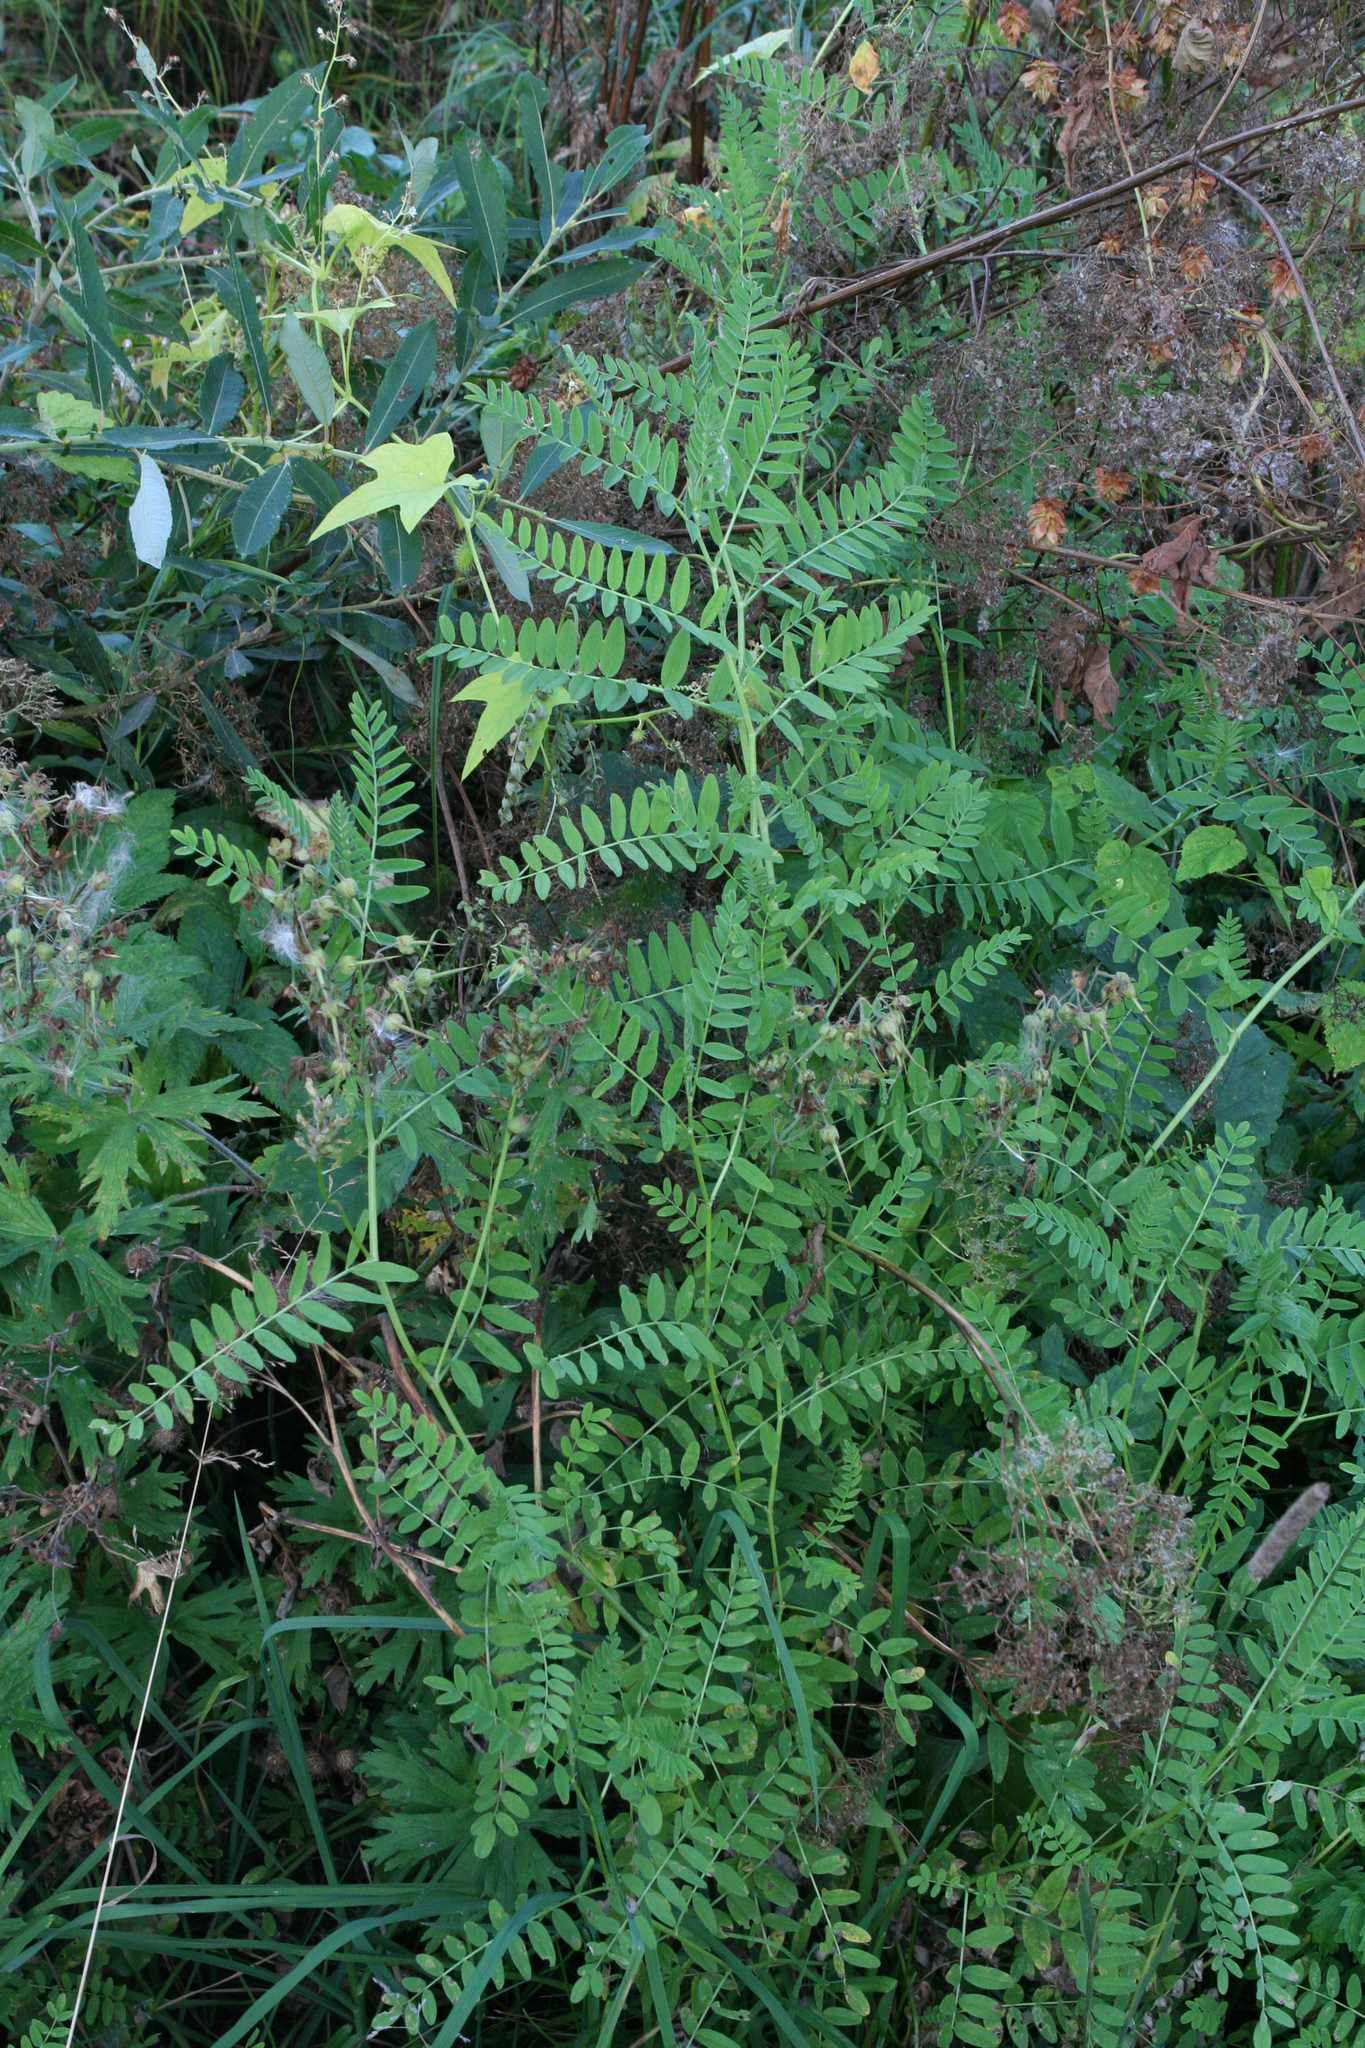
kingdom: Plantae
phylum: Tracheophyta
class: Magnoliopsida
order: Fabales
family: Fabaceae
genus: Astragalus
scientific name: Astragalus cicer
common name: Chick-pea milk-vetch
